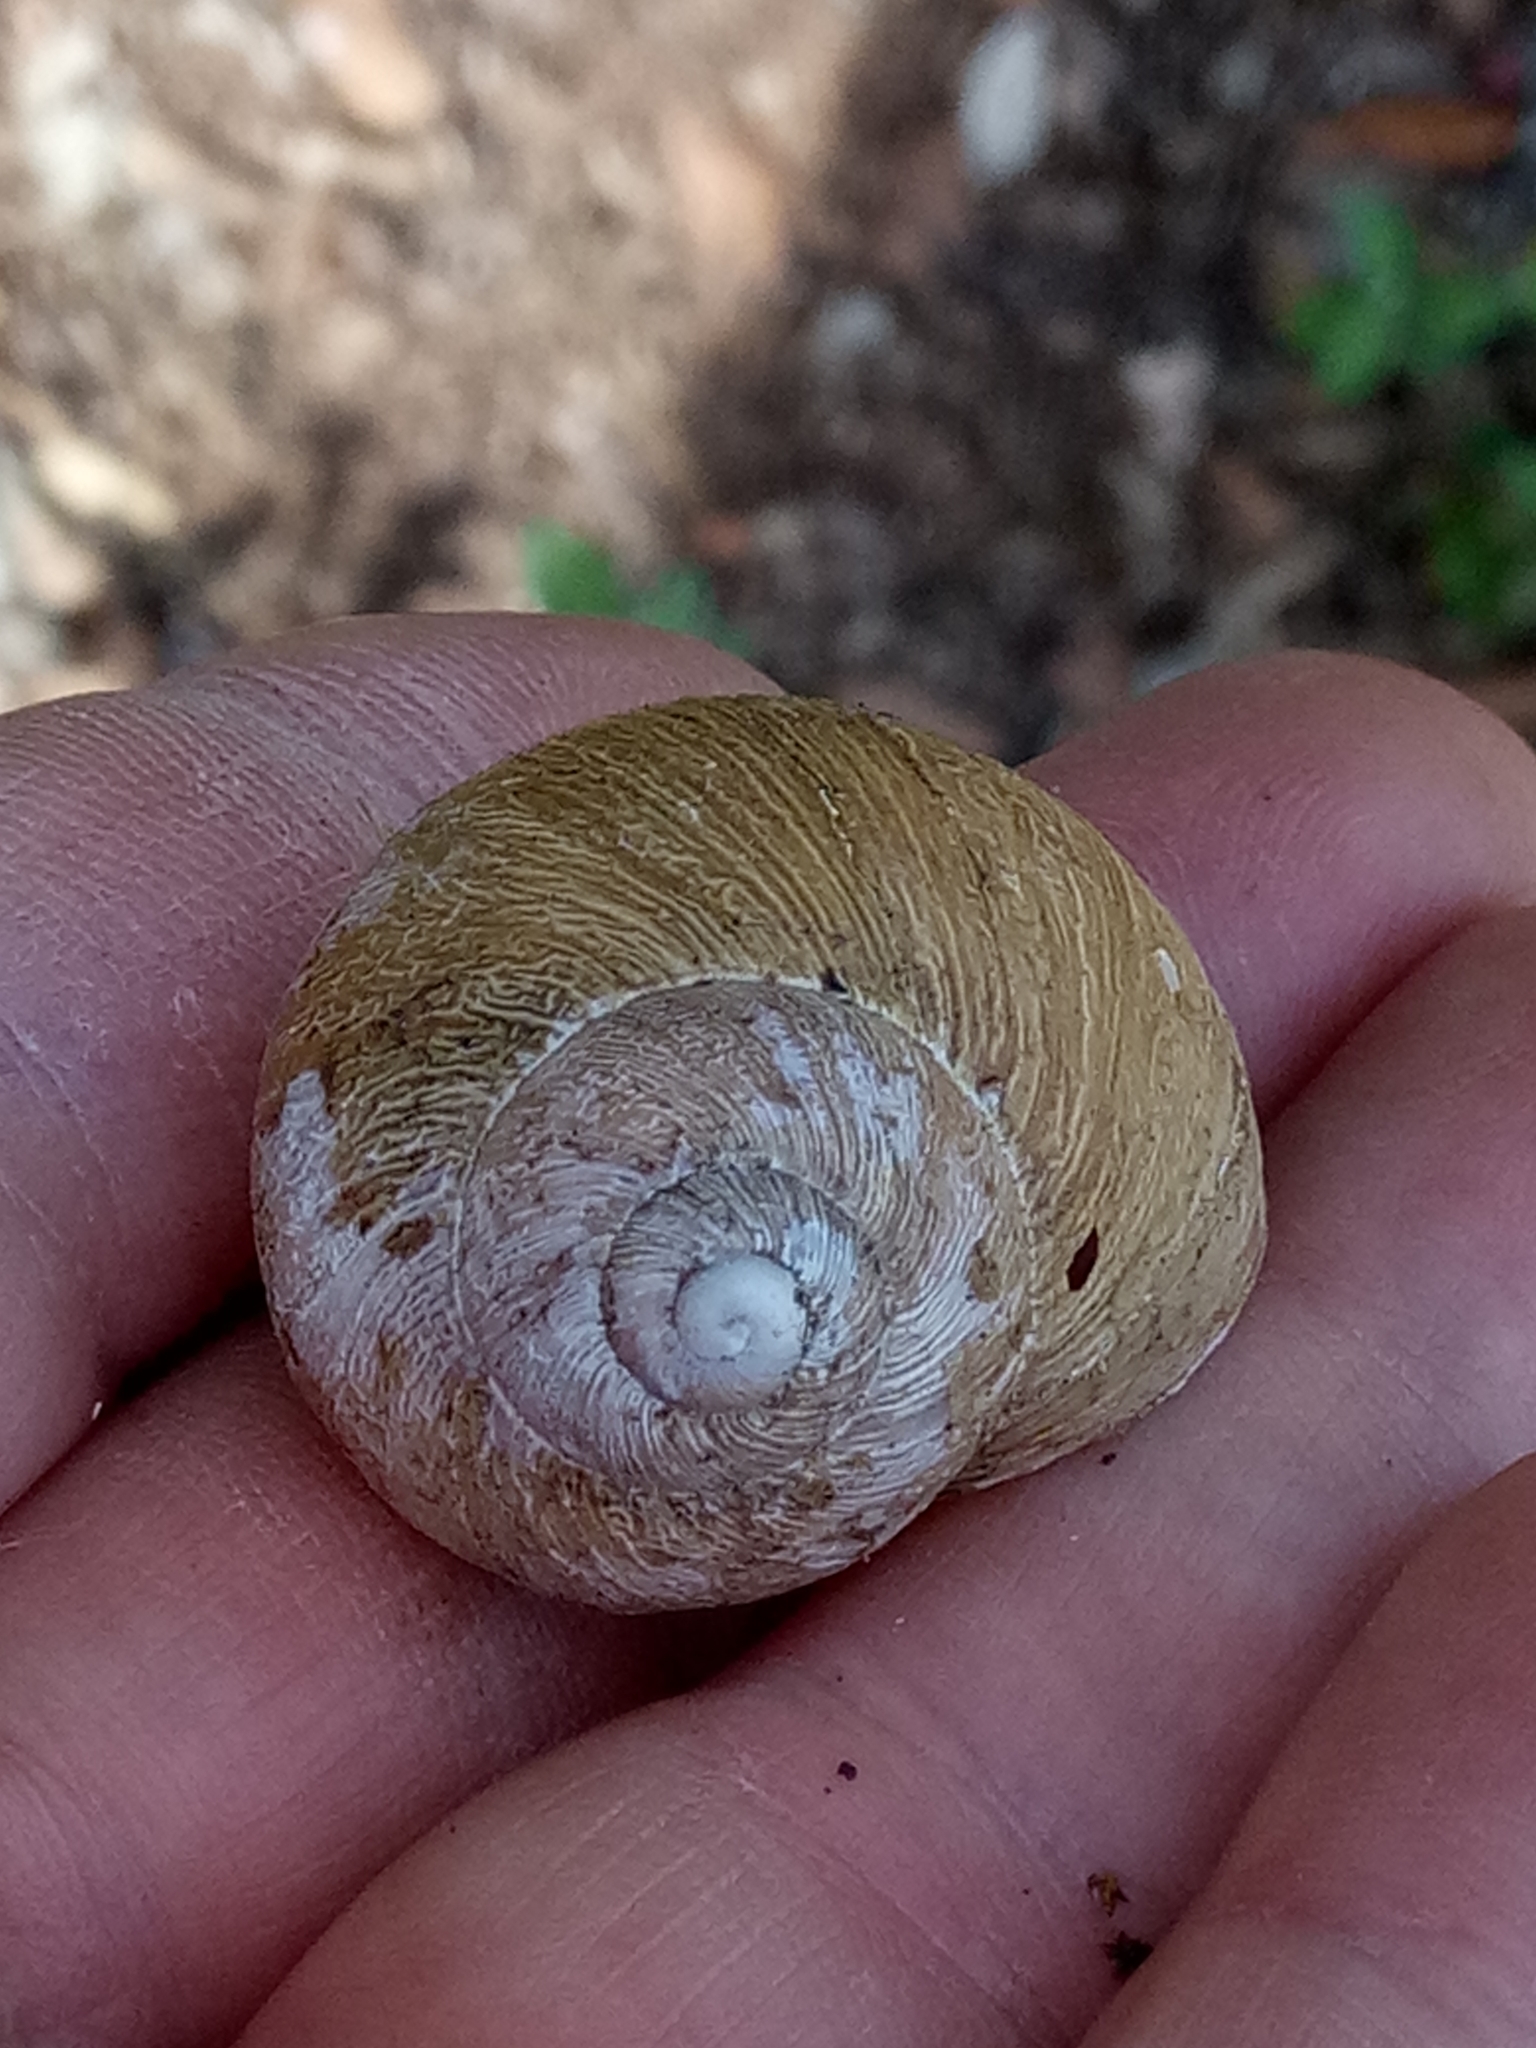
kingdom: Animalia
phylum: Mollusca
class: Gastropoda
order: Stylommatophora
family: Helicidae
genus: Cornu
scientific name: Cornu aspersum
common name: Brown garden snail
